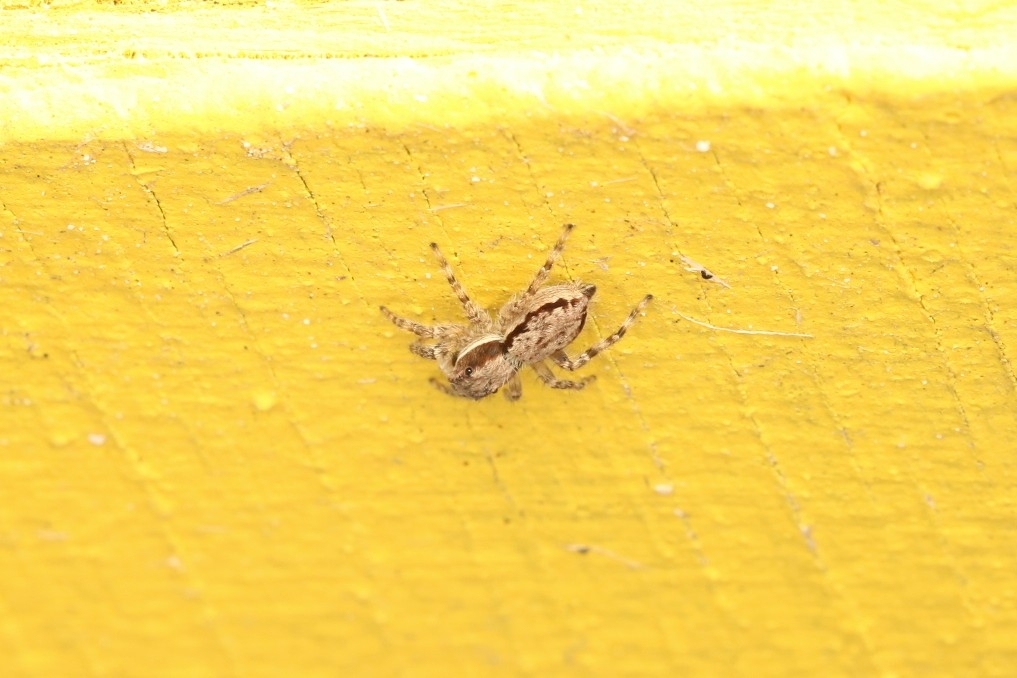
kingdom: Animalia
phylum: Arthropoda
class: Arachnida
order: Araneae
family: Salticidae
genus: Menemerus
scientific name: Menemerus bivittatus
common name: Gray wall jumper
